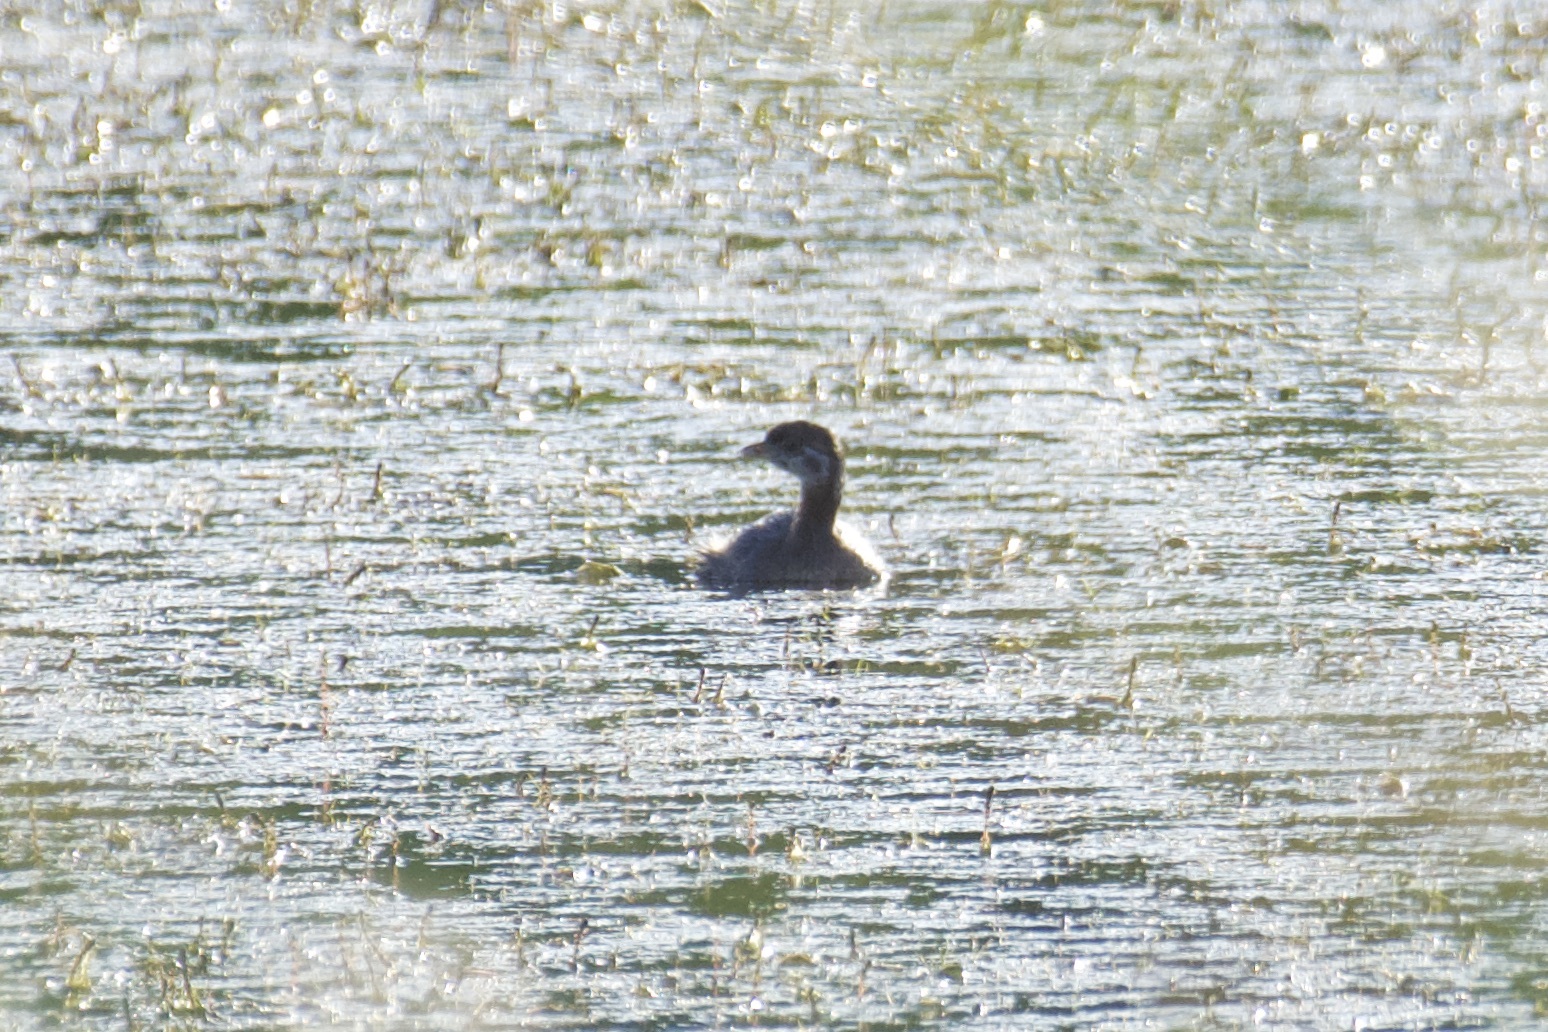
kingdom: Animalia
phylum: Chordata
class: Aves
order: Podicipediformes
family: Podicipedidae
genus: Podilymbus
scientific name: Podilymbus podiceps
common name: Pied-billed grebe
